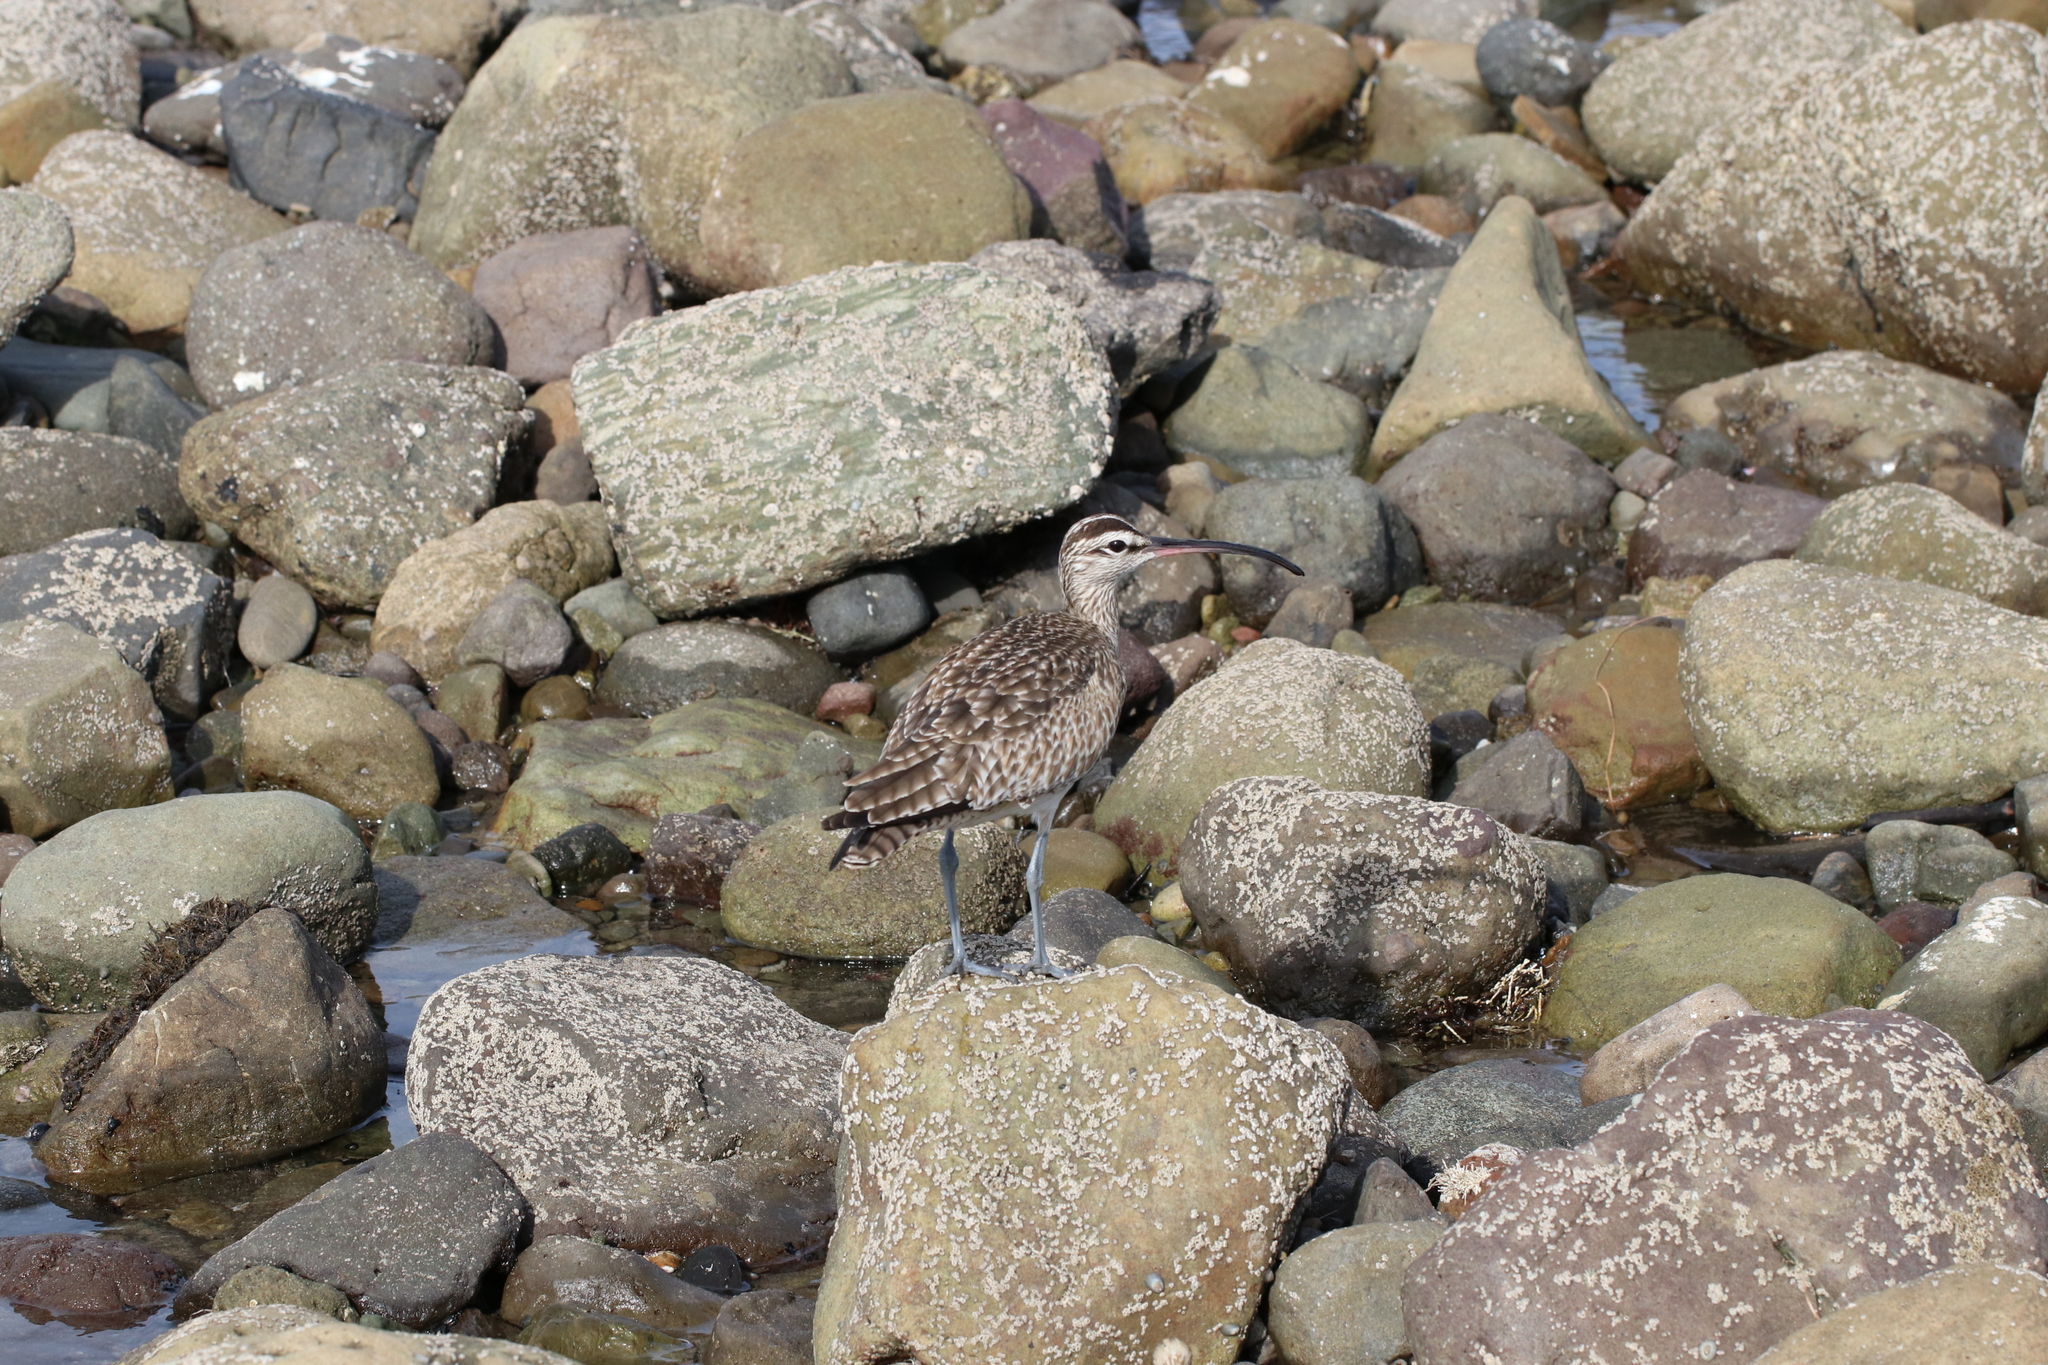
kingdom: Animalia
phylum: Chordata
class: Aves
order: Charadriiformes
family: Scolopacidae
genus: Numenius
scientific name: Numenius phaeopus
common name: Whimbrel
